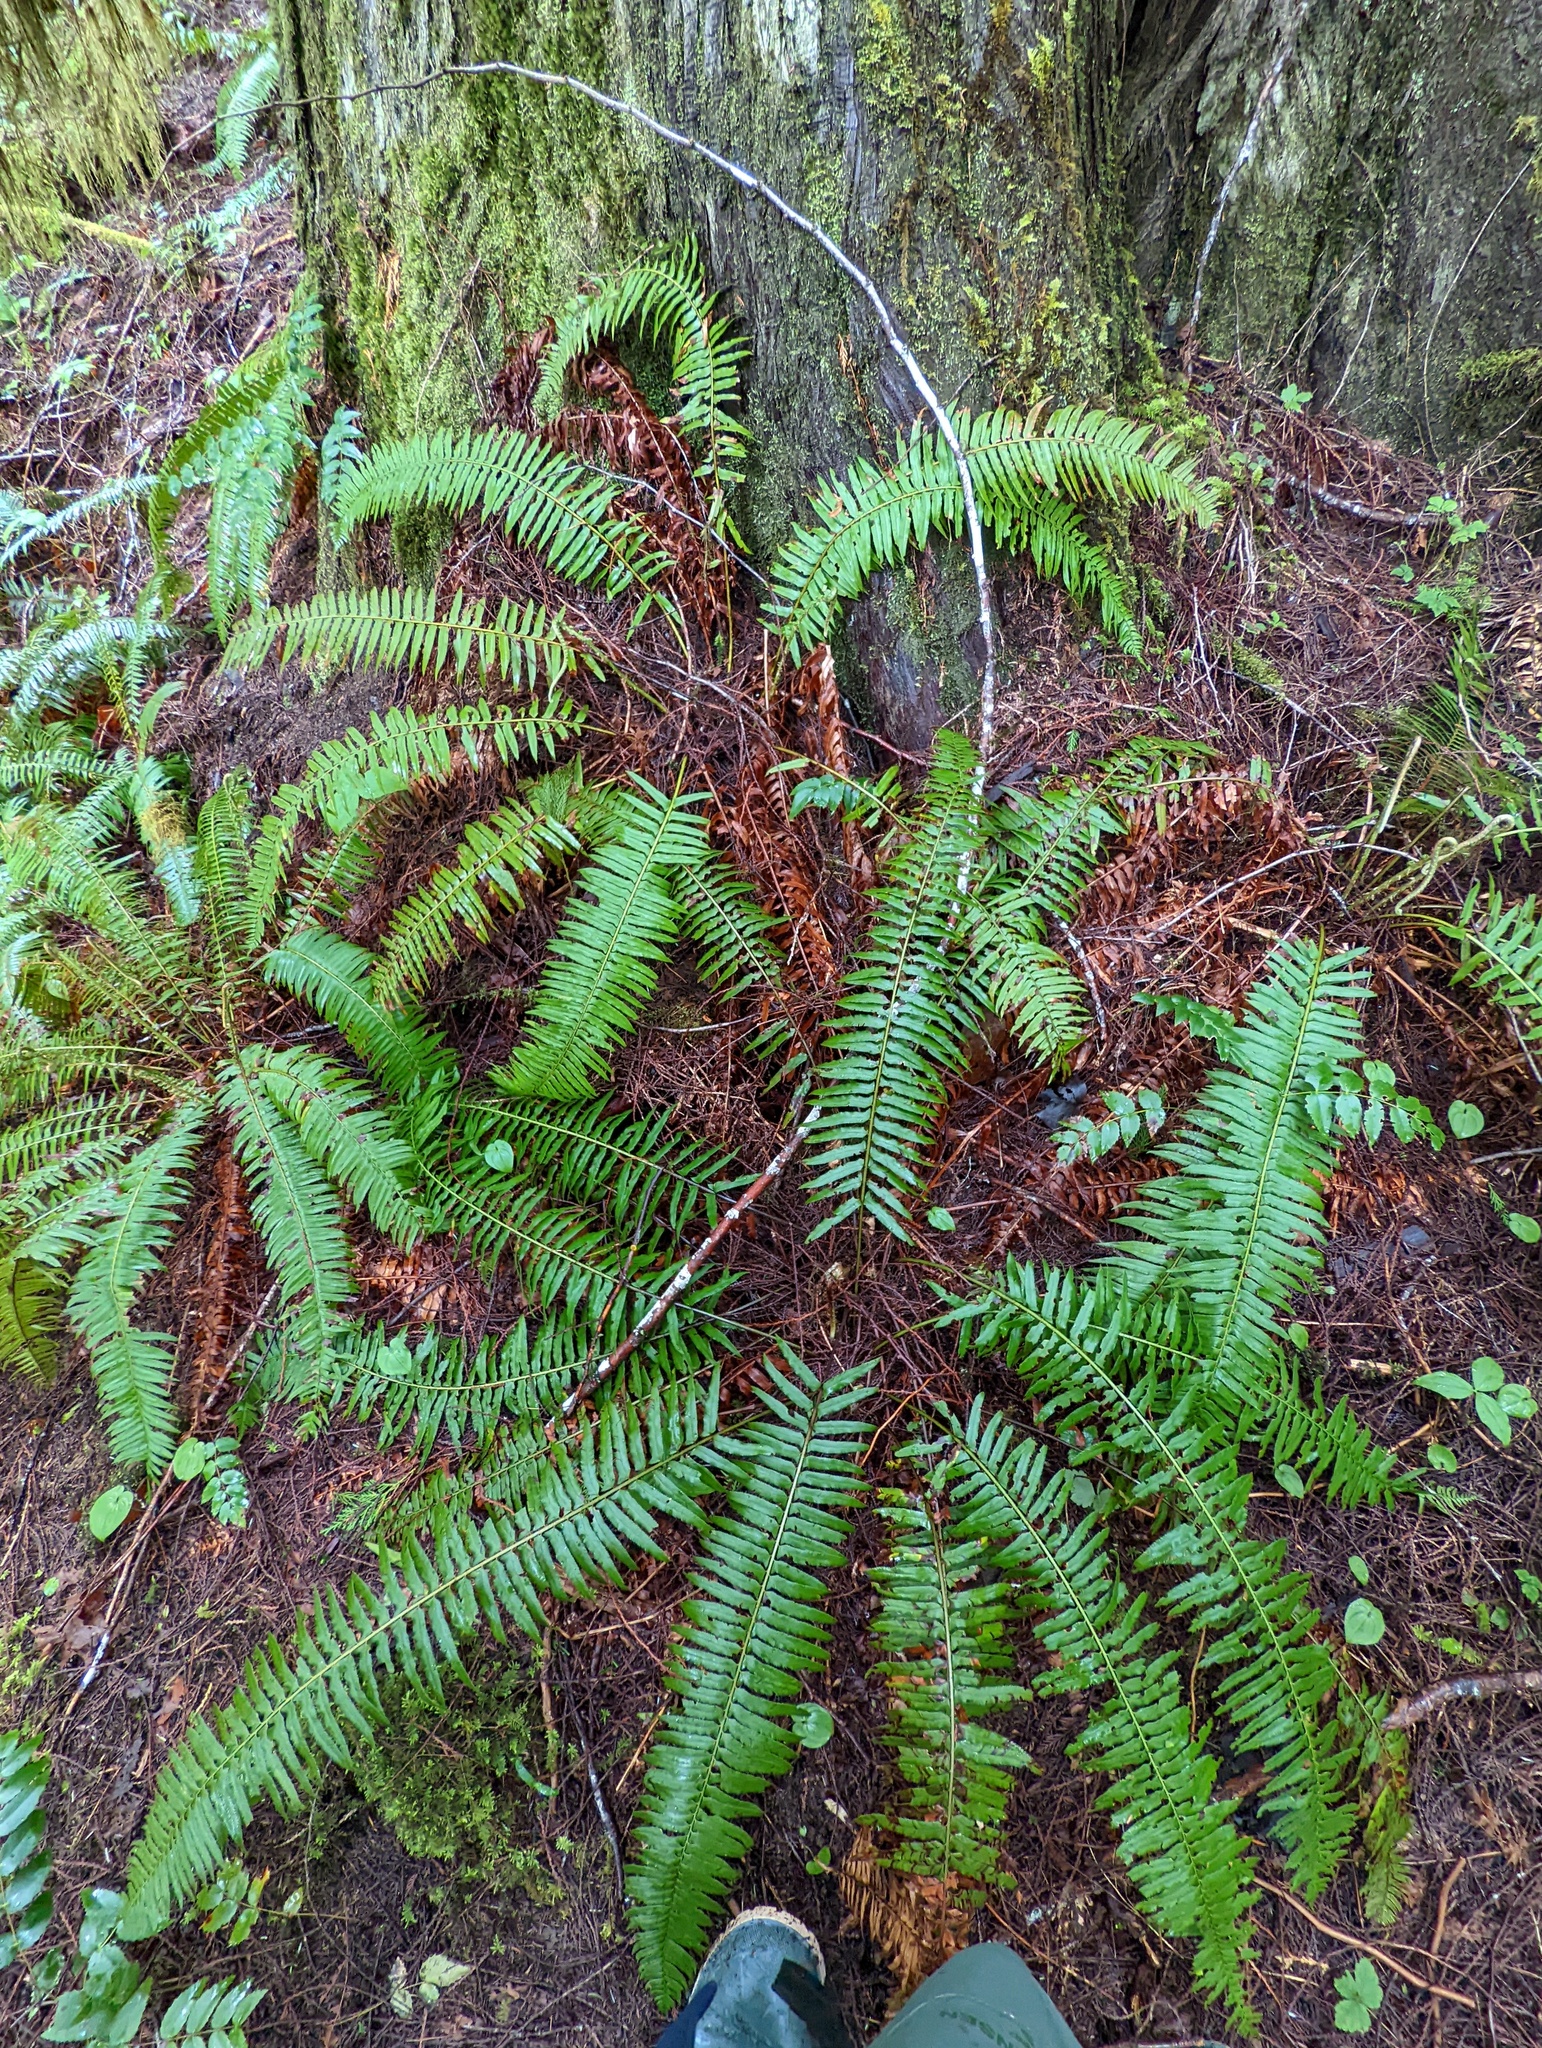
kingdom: Plantae
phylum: Tracheophyta
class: Polypodiopsida
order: Polypodiales
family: Dryopteridaceae
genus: Polystichum
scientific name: Polystichum munitum
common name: Western sword-fern
